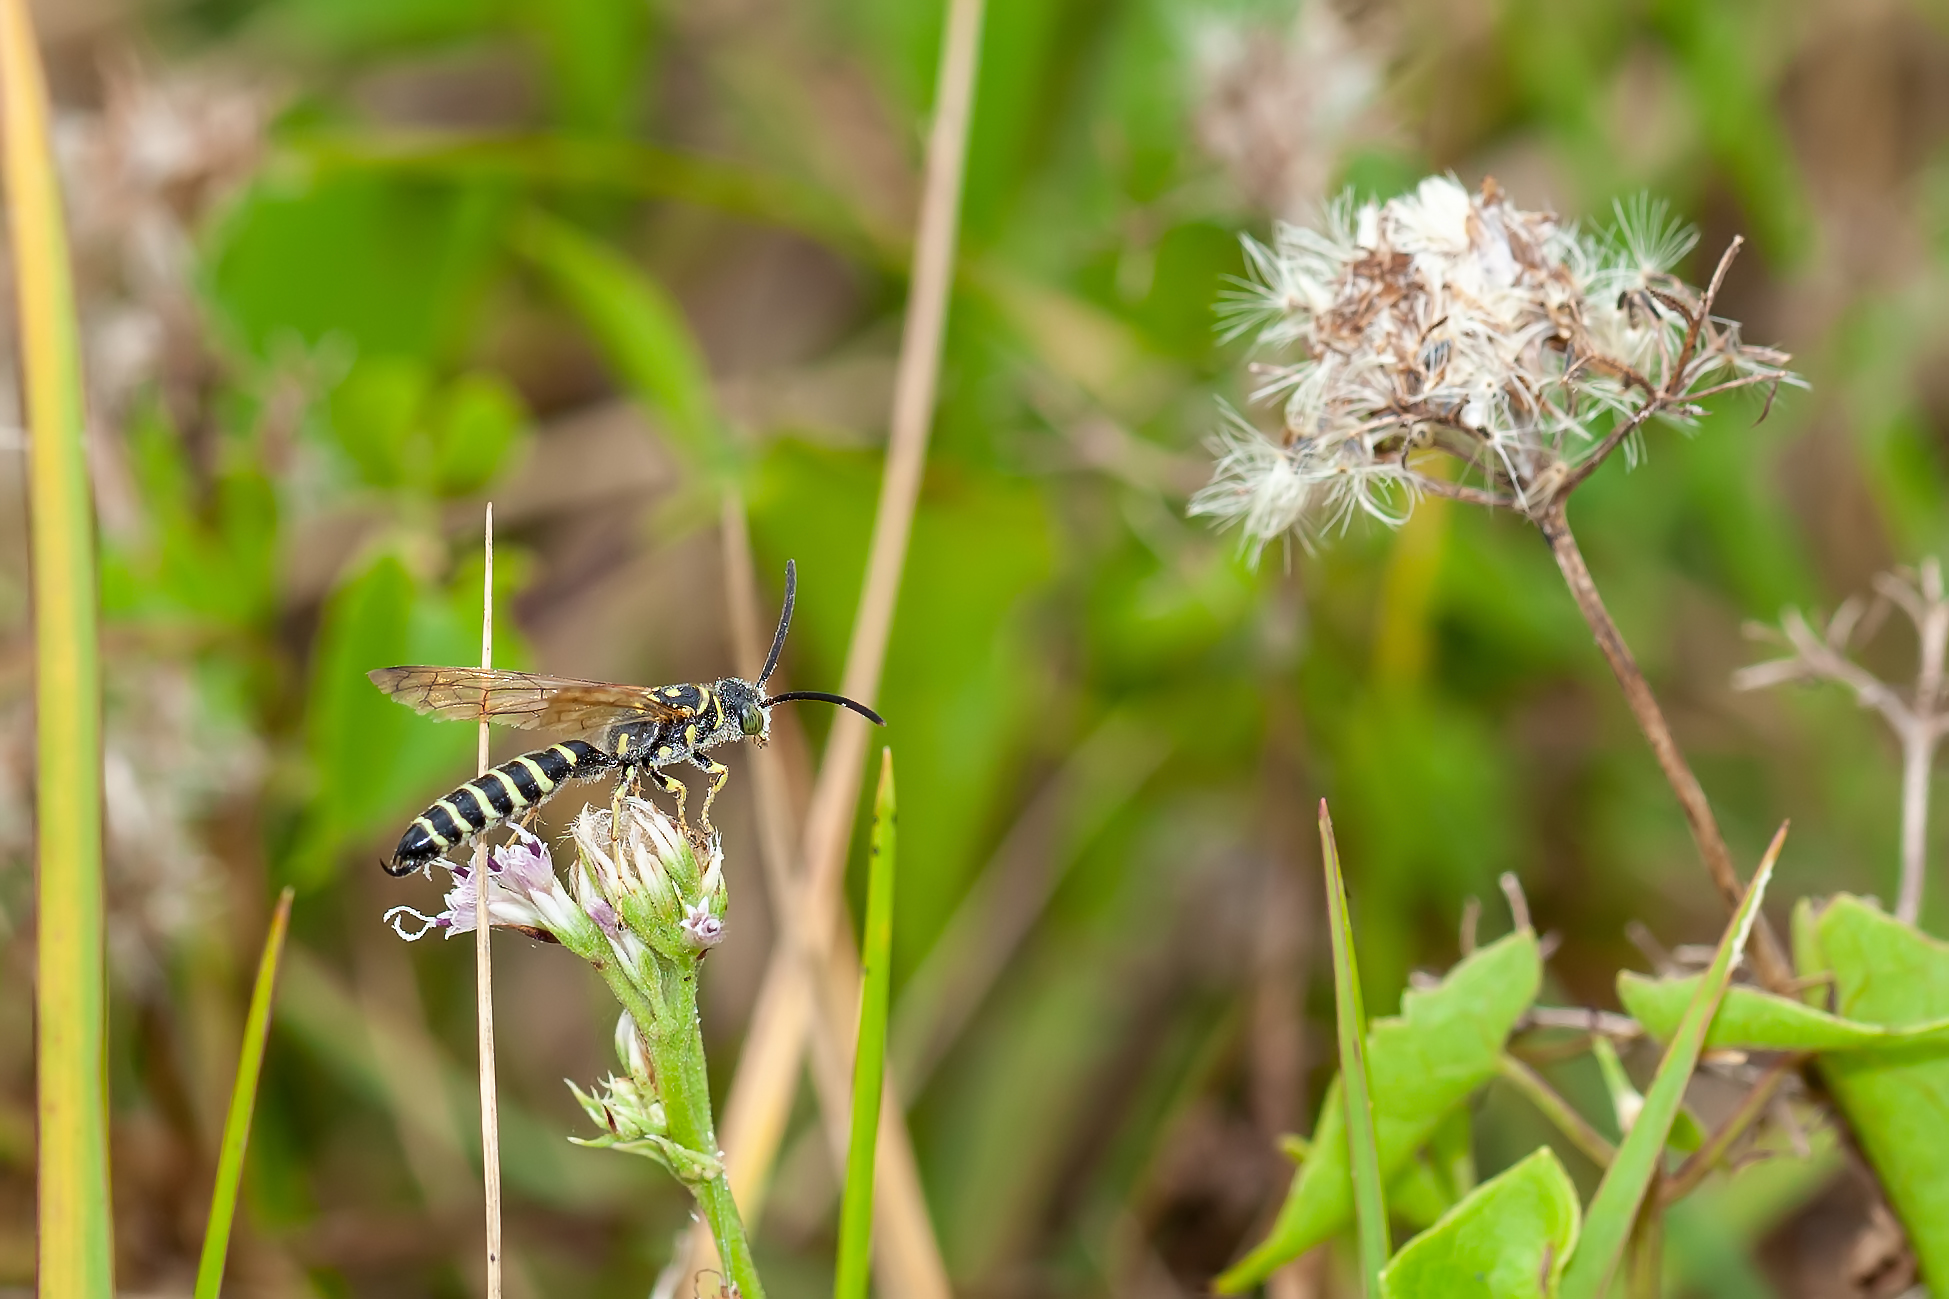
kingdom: Animalia
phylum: Arthropoda
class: Insecta
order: Hymenoptera
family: Tiphiidae
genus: Myzinum
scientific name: Myzinum
